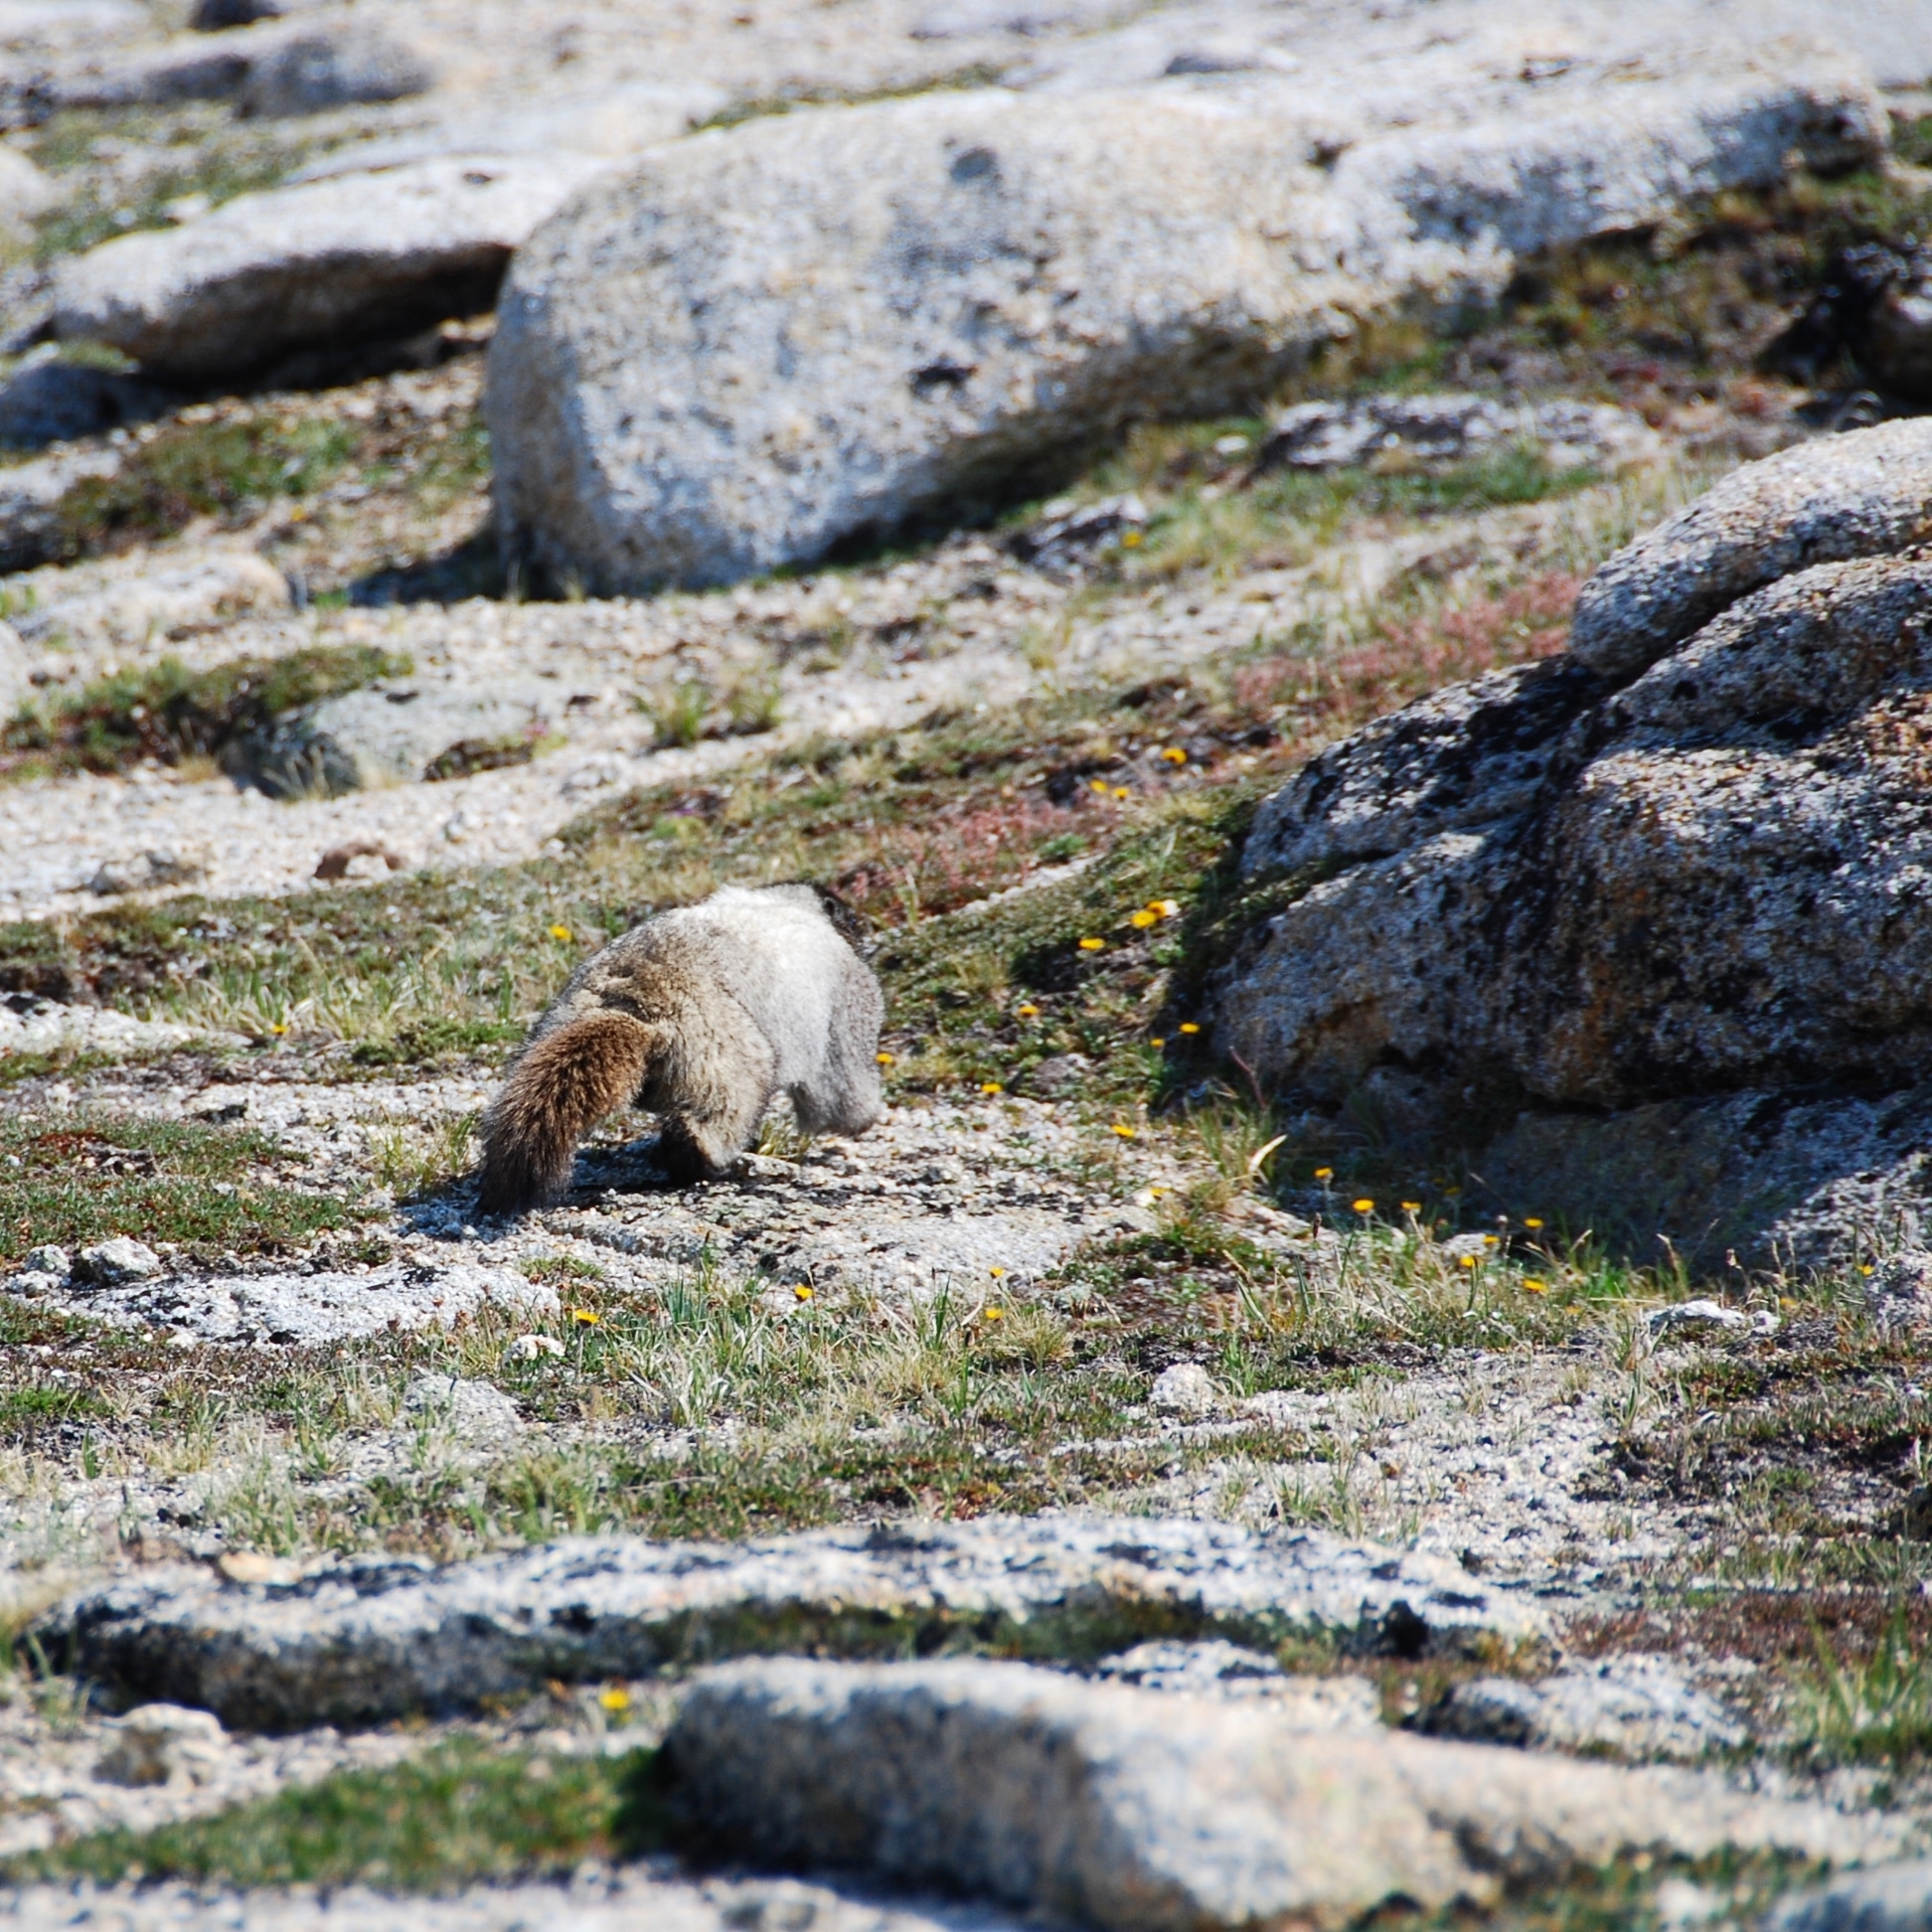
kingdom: Animalia
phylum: Chordata
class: Mammalia
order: Rodentia
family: Sciuridae
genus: Marmota
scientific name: Marmota caligata
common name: Hoary marmot
